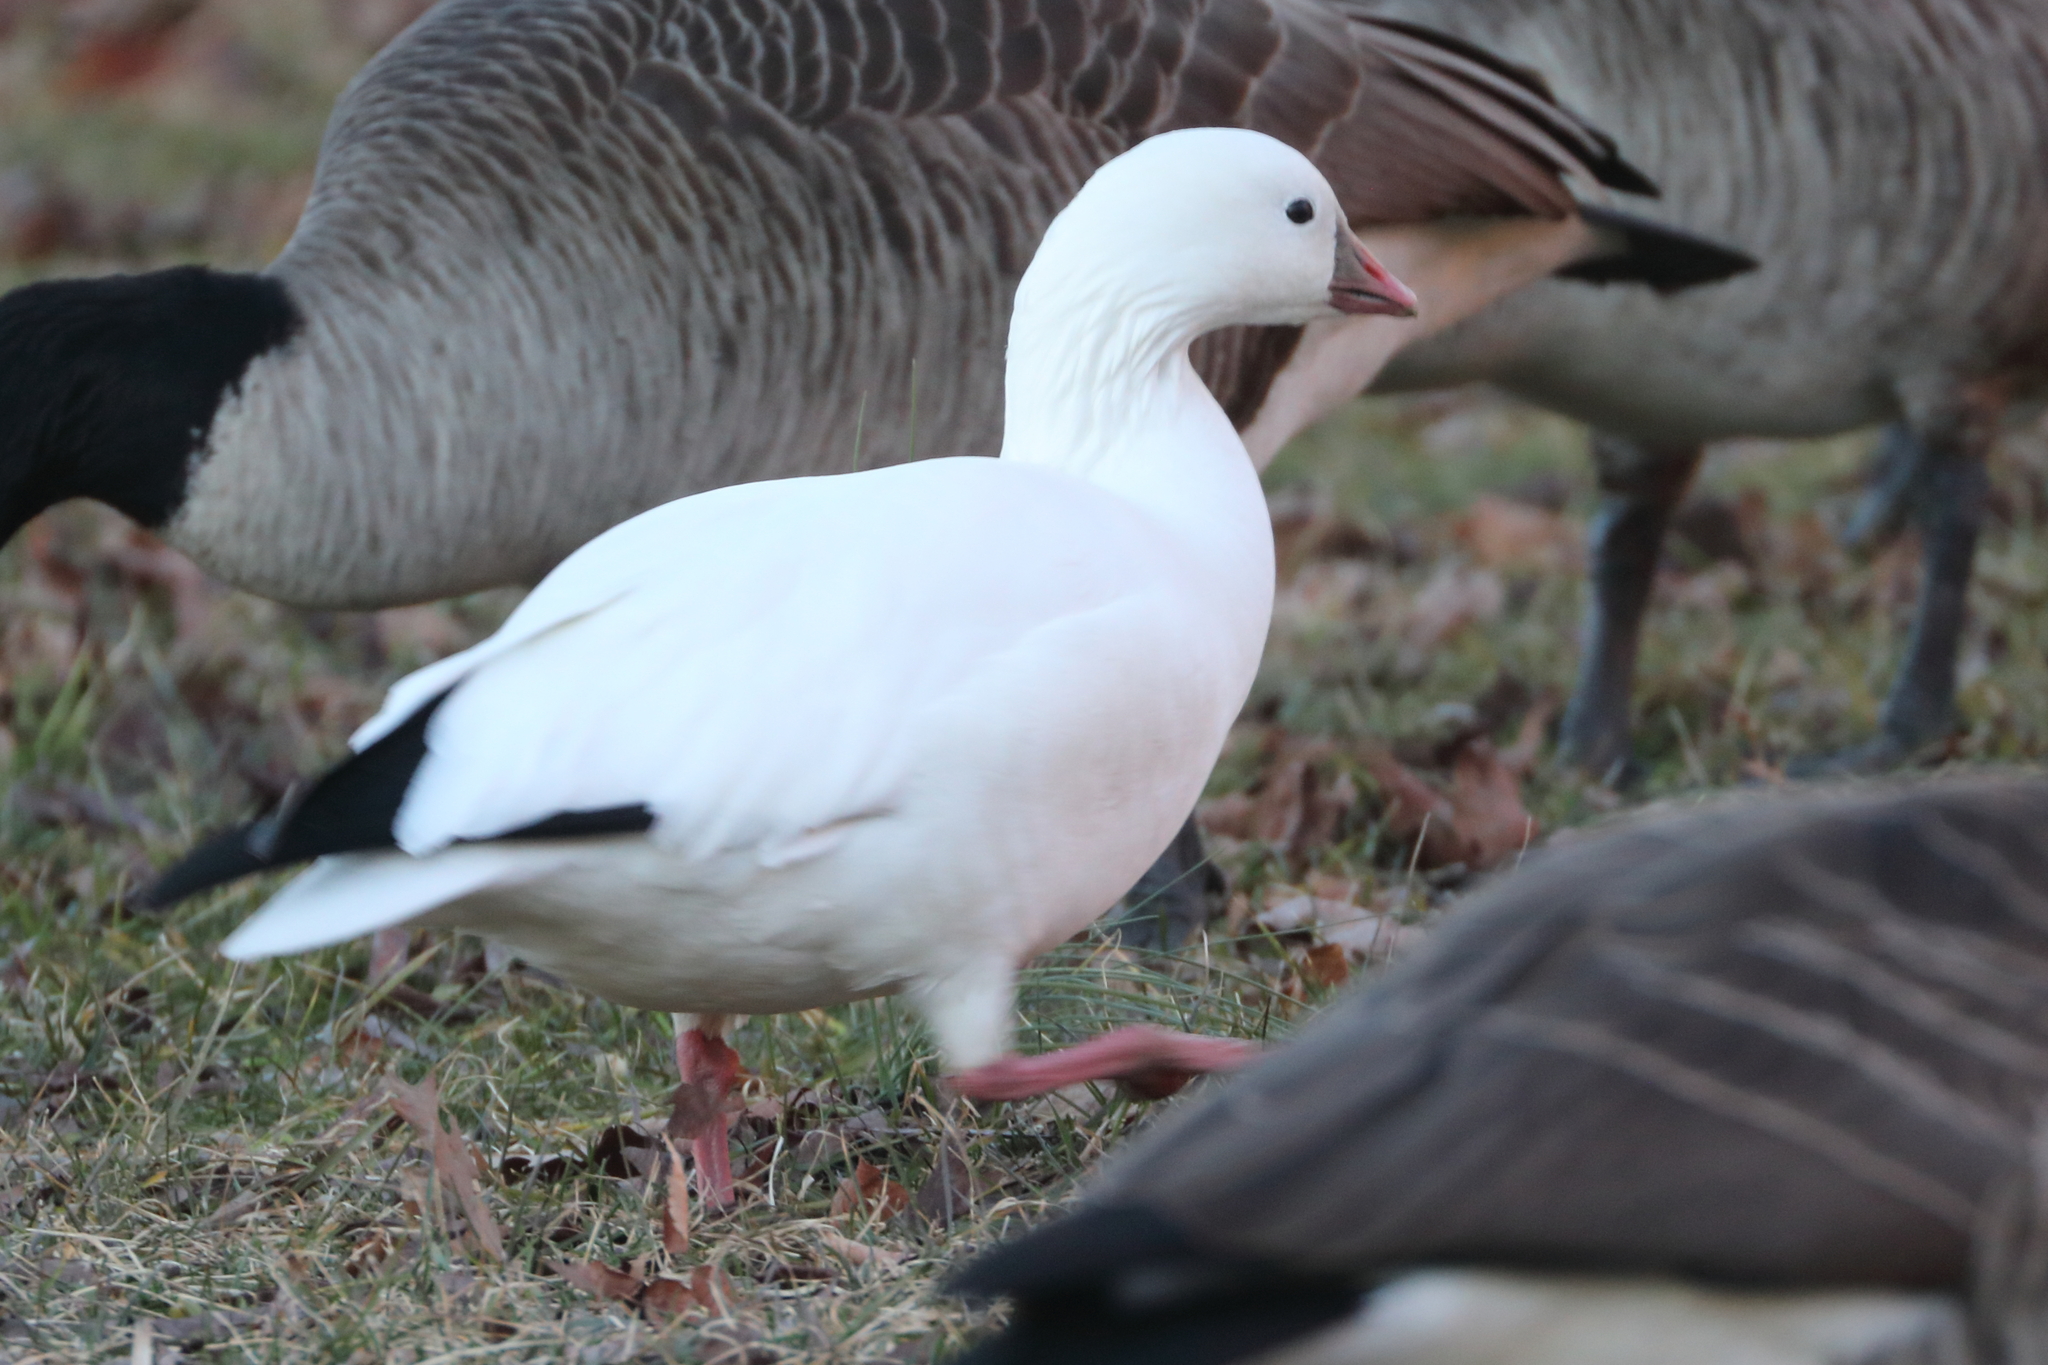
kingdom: Animalia
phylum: Chordata
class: Aves
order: Anseriformes
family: Anatidae
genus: Anser
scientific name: Anser rossii
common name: Ross's goose
